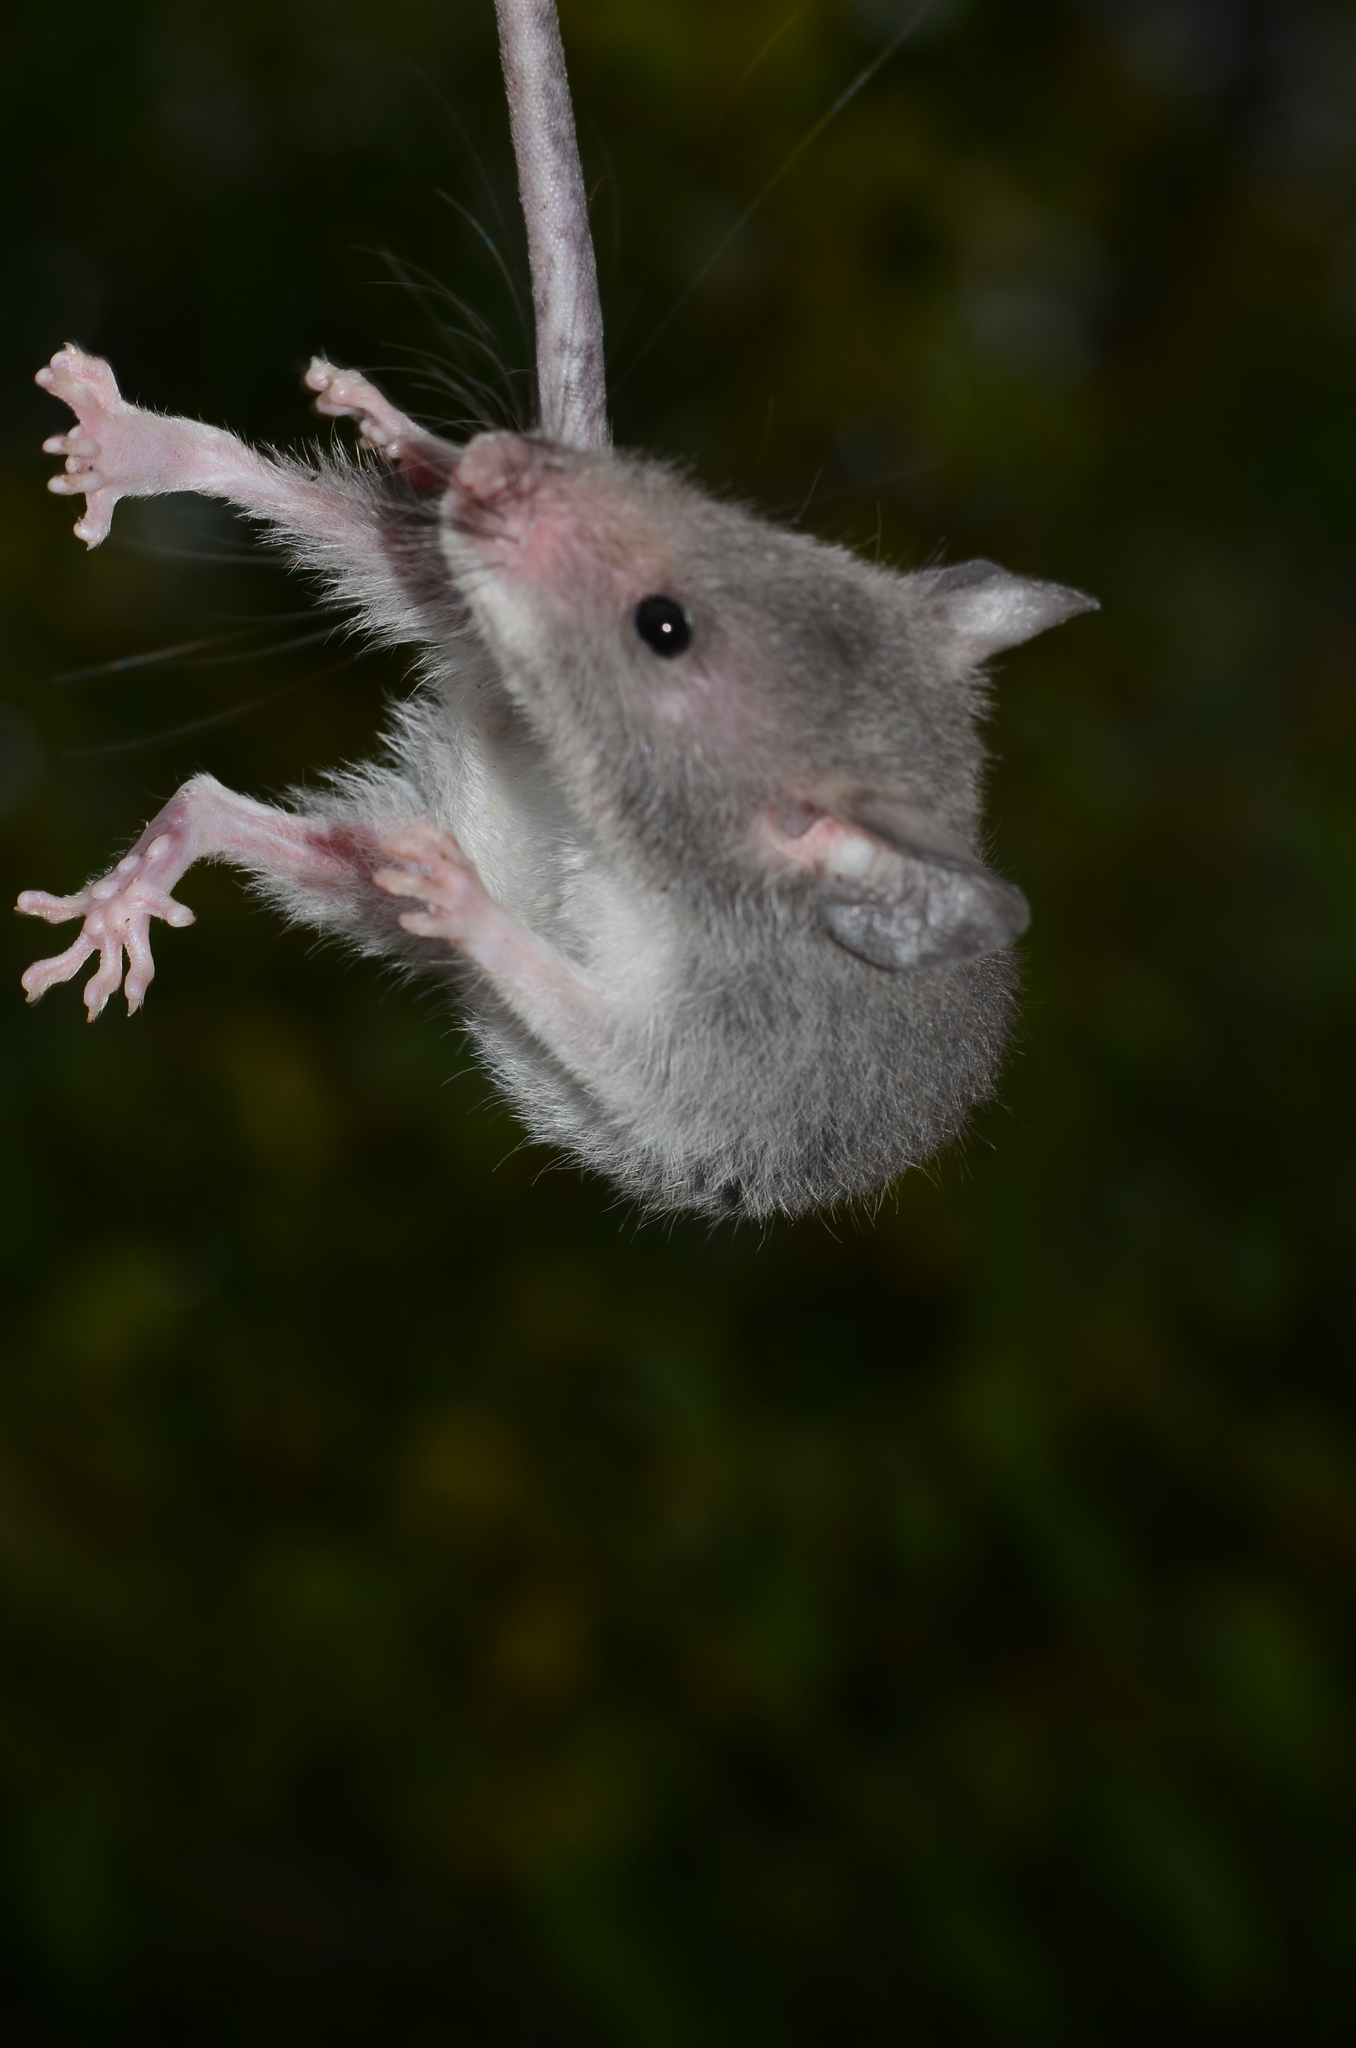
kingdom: Animalia
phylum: Chordata
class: Mammalia
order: Rodentia
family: Nesomyidae
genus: Beamys
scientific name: Beamys hindei
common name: Lesser hamster-rat, long-tailed pouched rat
